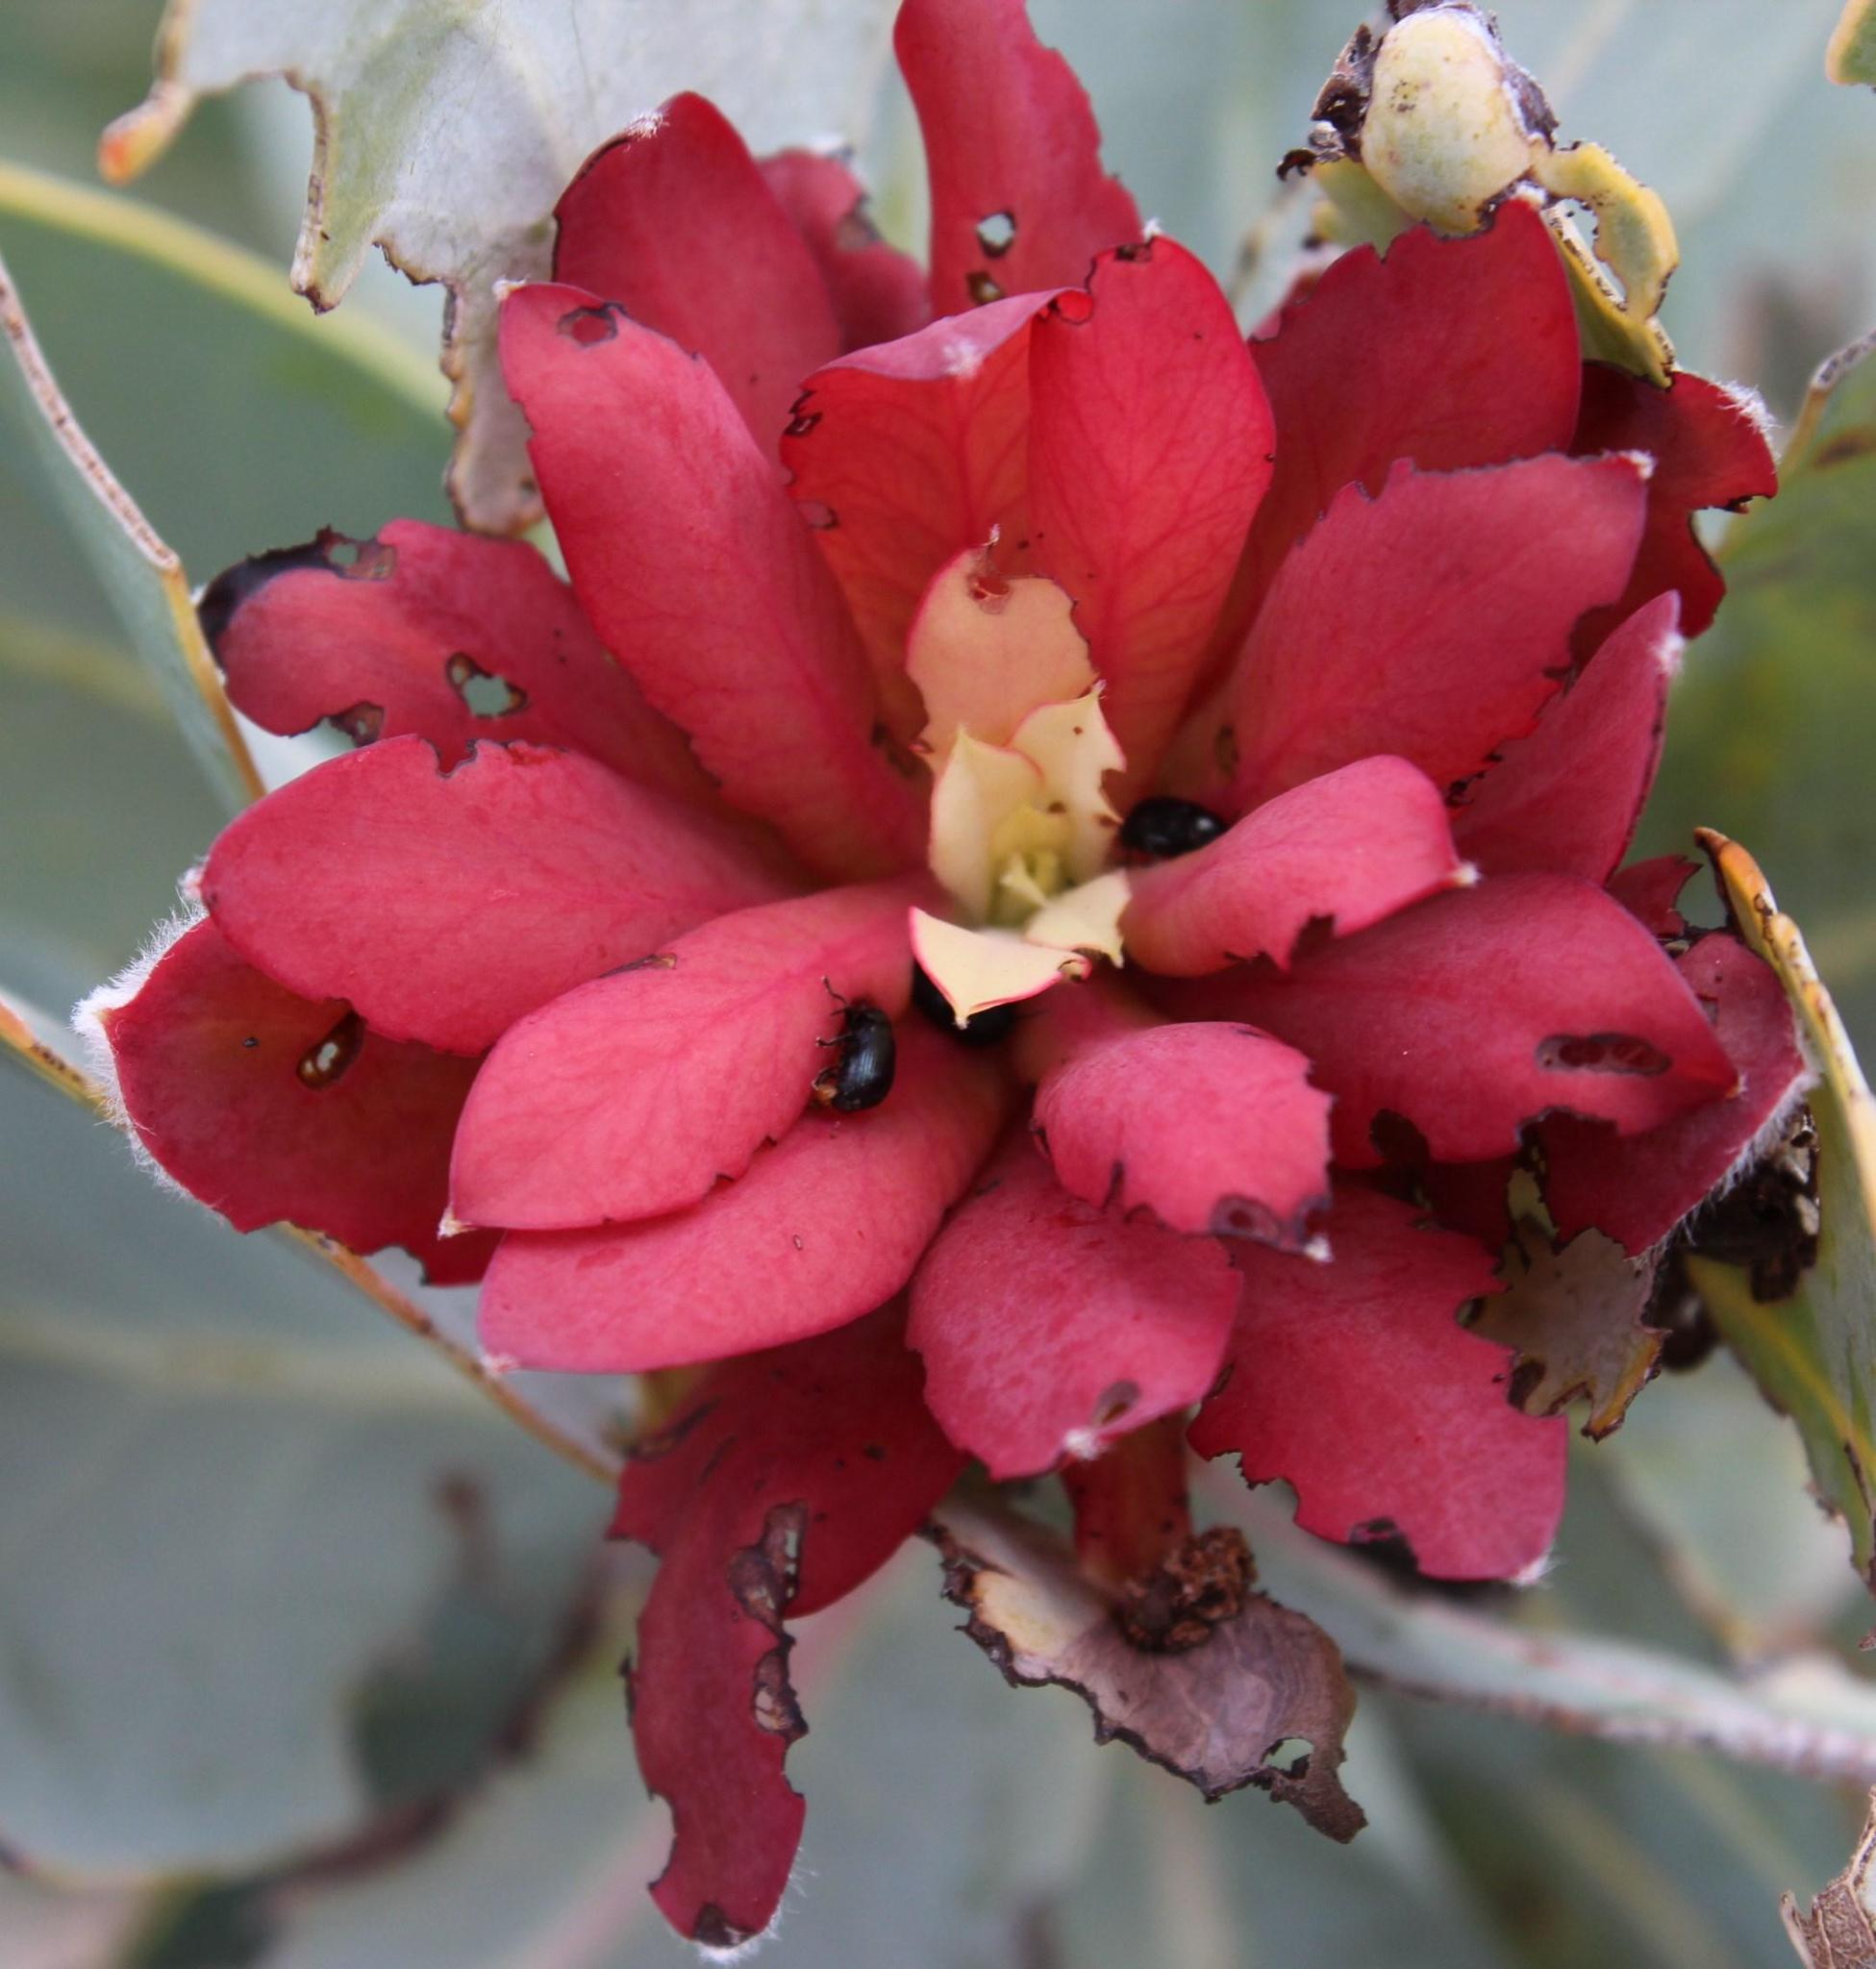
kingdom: Plantae
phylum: Tracheophyta
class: Magnoliopsida
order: Proteales
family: Proteaceae
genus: Protea
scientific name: Protea nitida
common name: Tree protea
